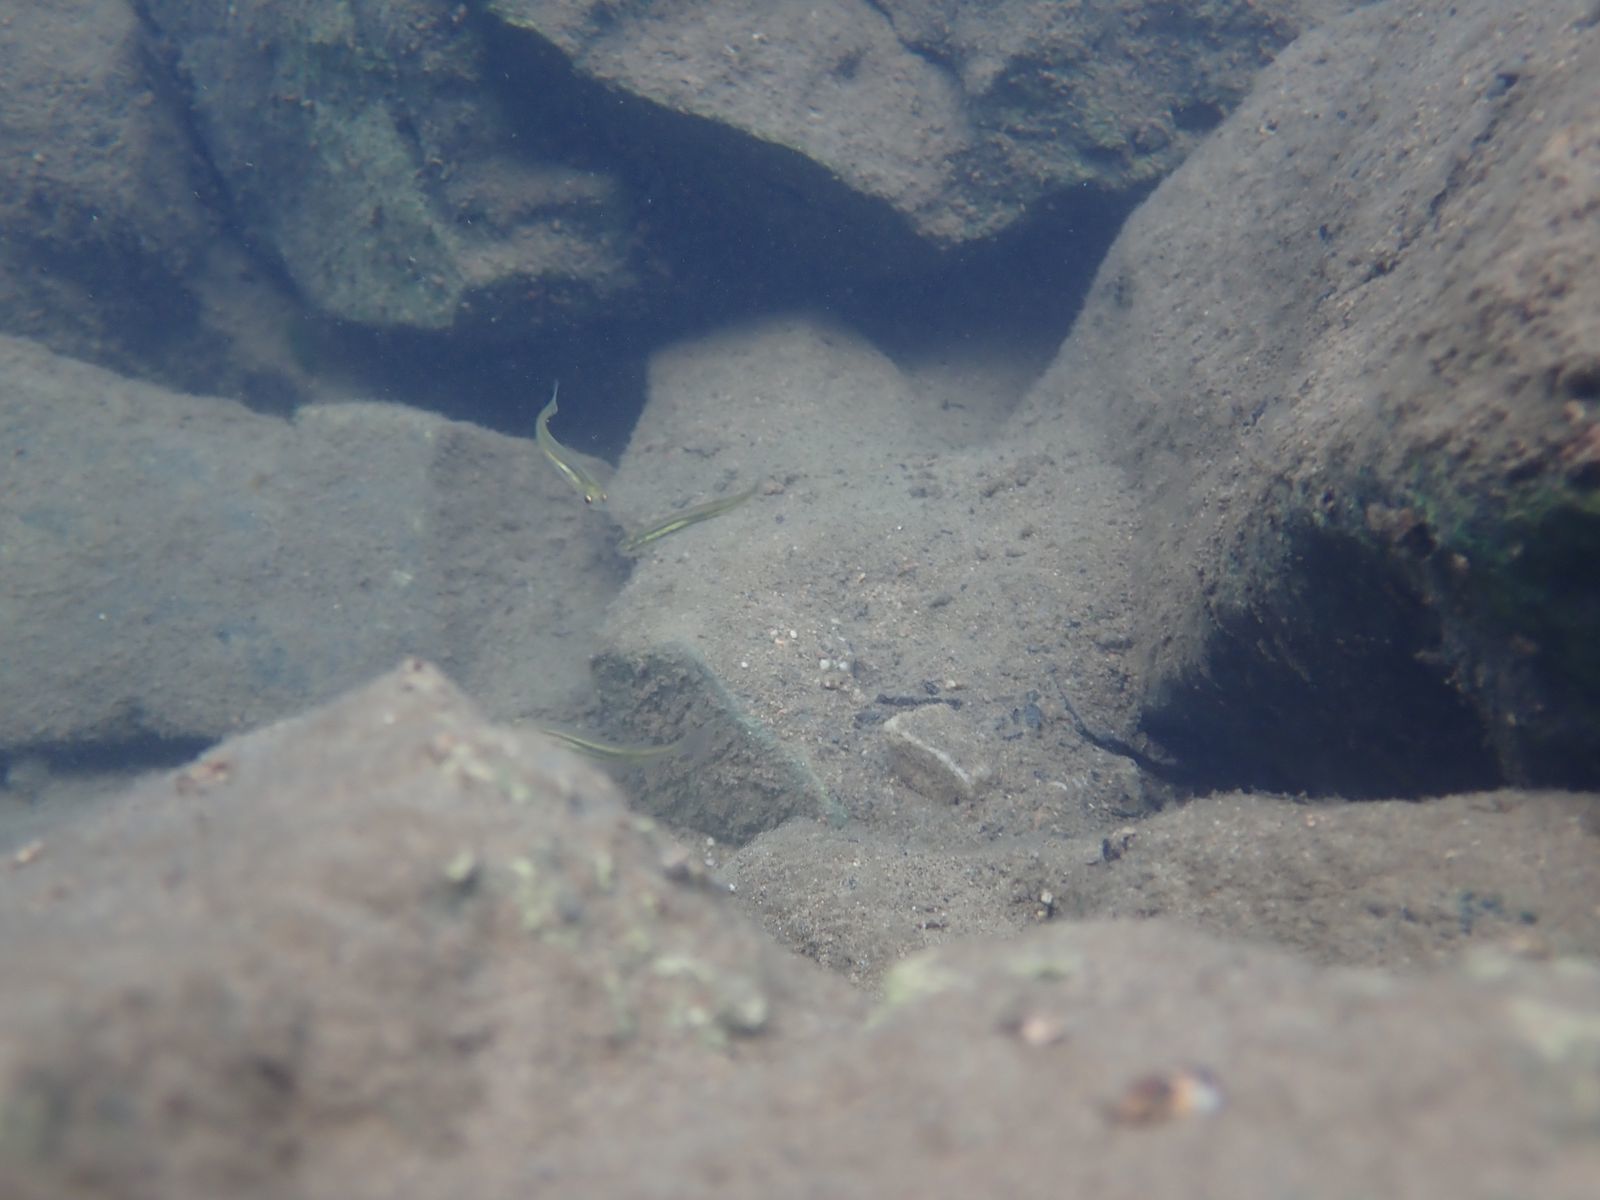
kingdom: Animalia
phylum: Chordata
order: Osmeriformes
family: Galaxiidae
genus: Galaxias
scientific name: Galaxias olidus
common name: Barred galaxias
